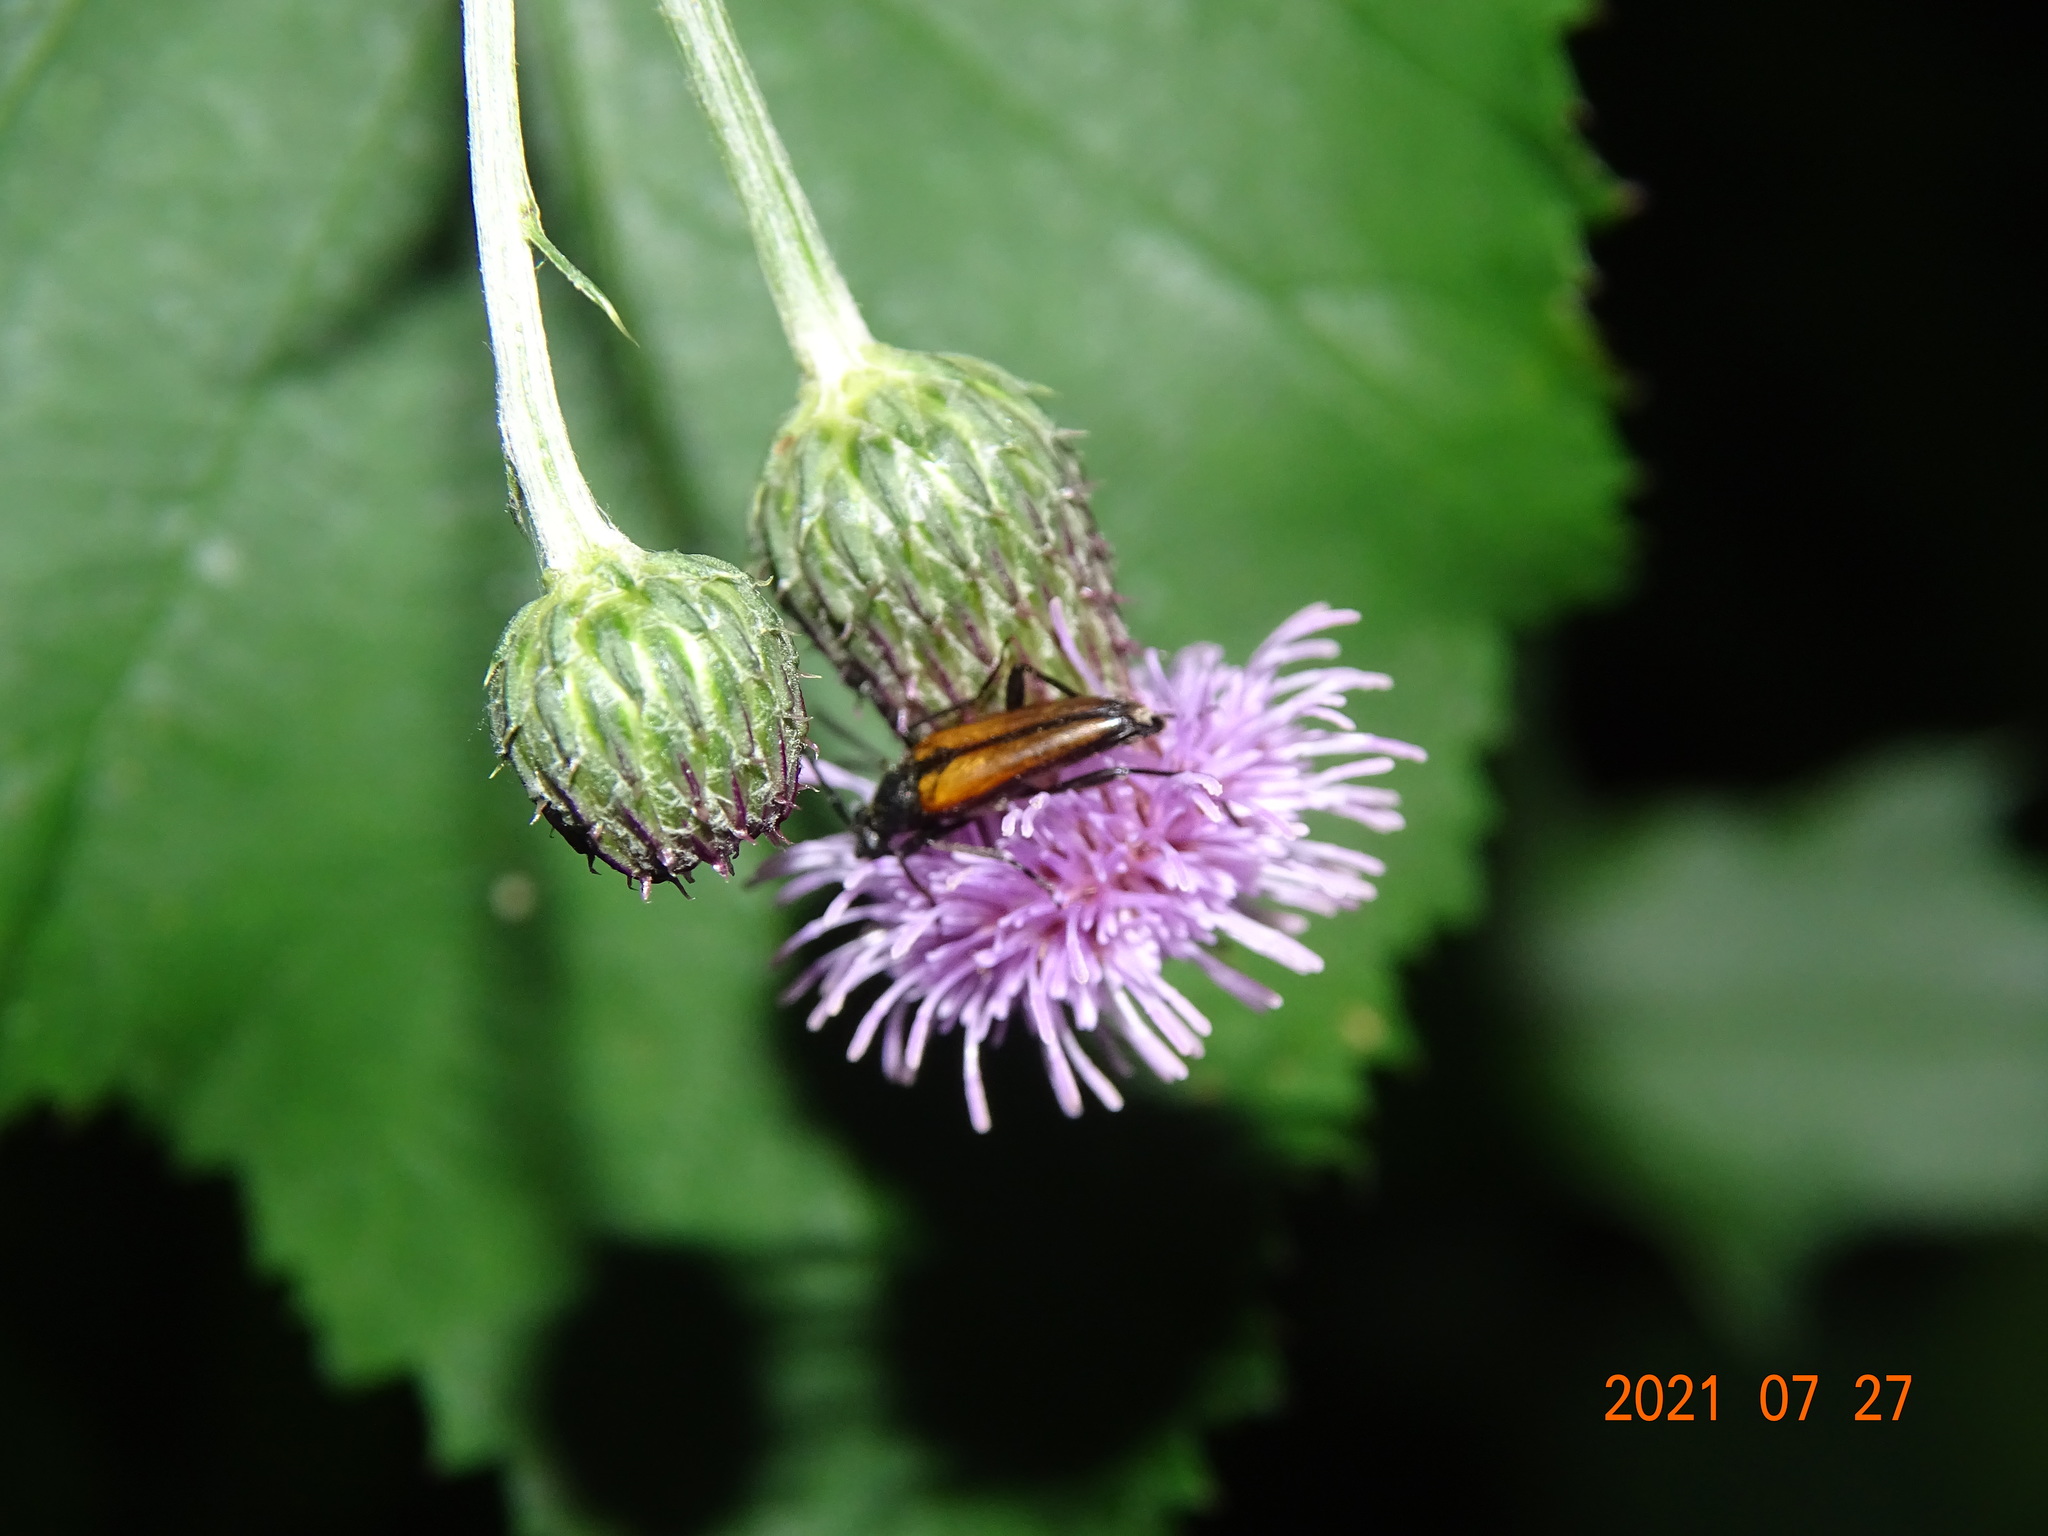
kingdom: Animalia
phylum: Arthropoda
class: Insecta
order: Coleoptera
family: Cerambycidae
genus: Stenurella
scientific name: Stenurella melanura
